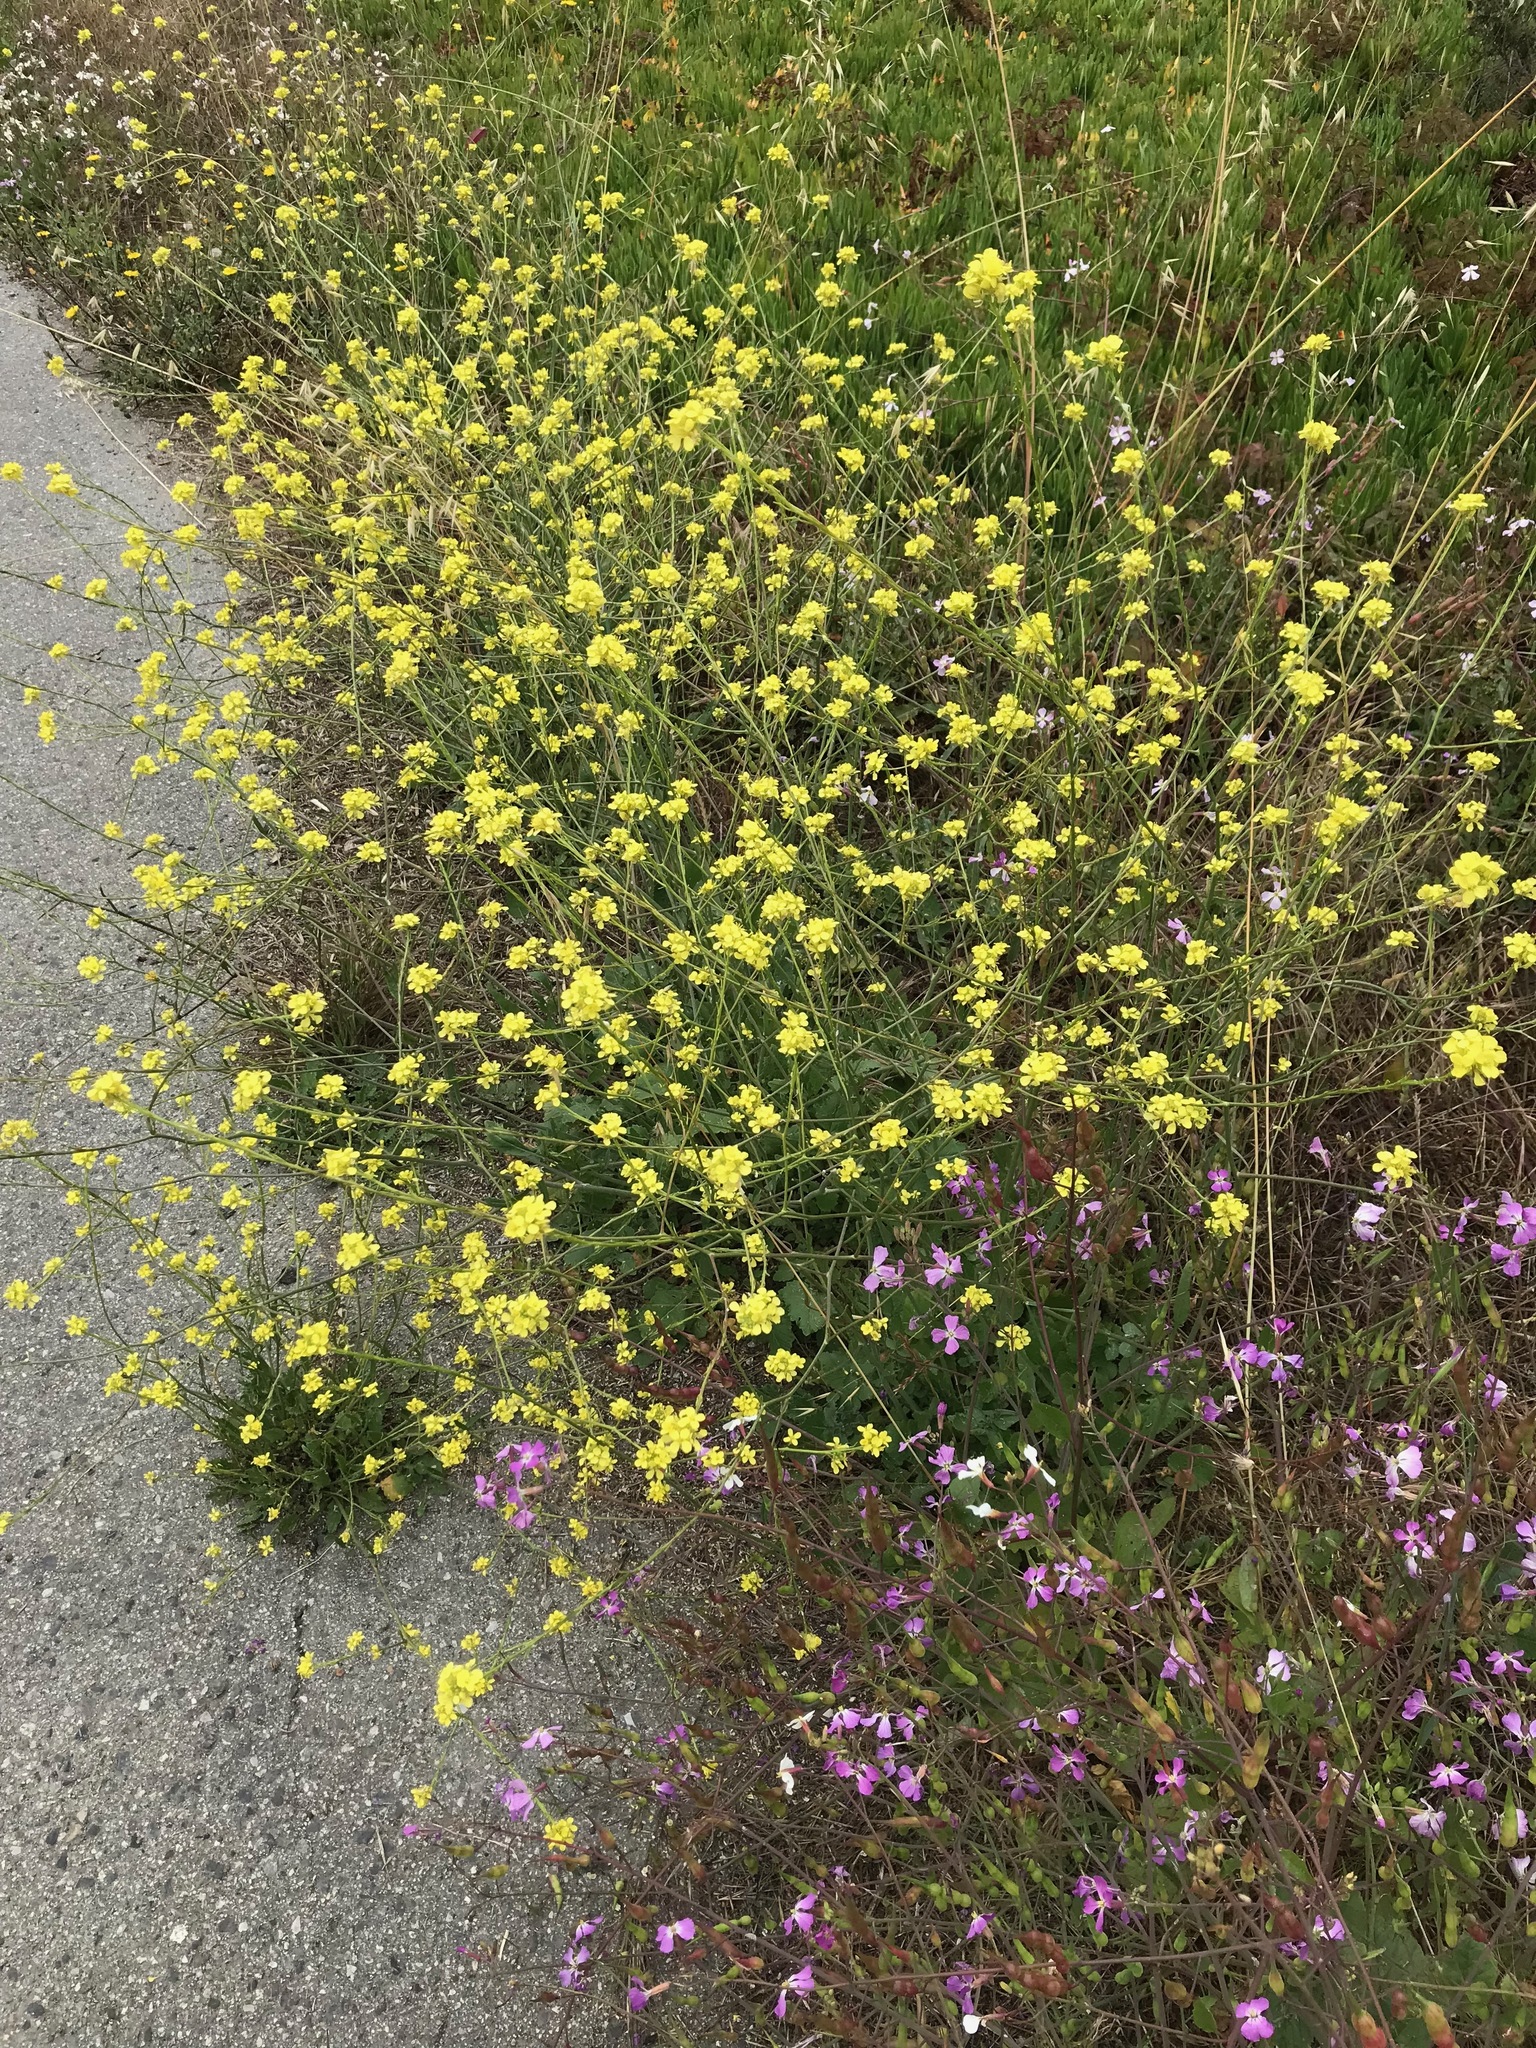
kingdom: Plantae
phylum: Tracheophyta
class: Magnoliopsida
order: Brassicales
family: Brassicaceae
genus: Hirschfeldia
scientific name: Hirschfeldia incana
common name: Hoary mustard
